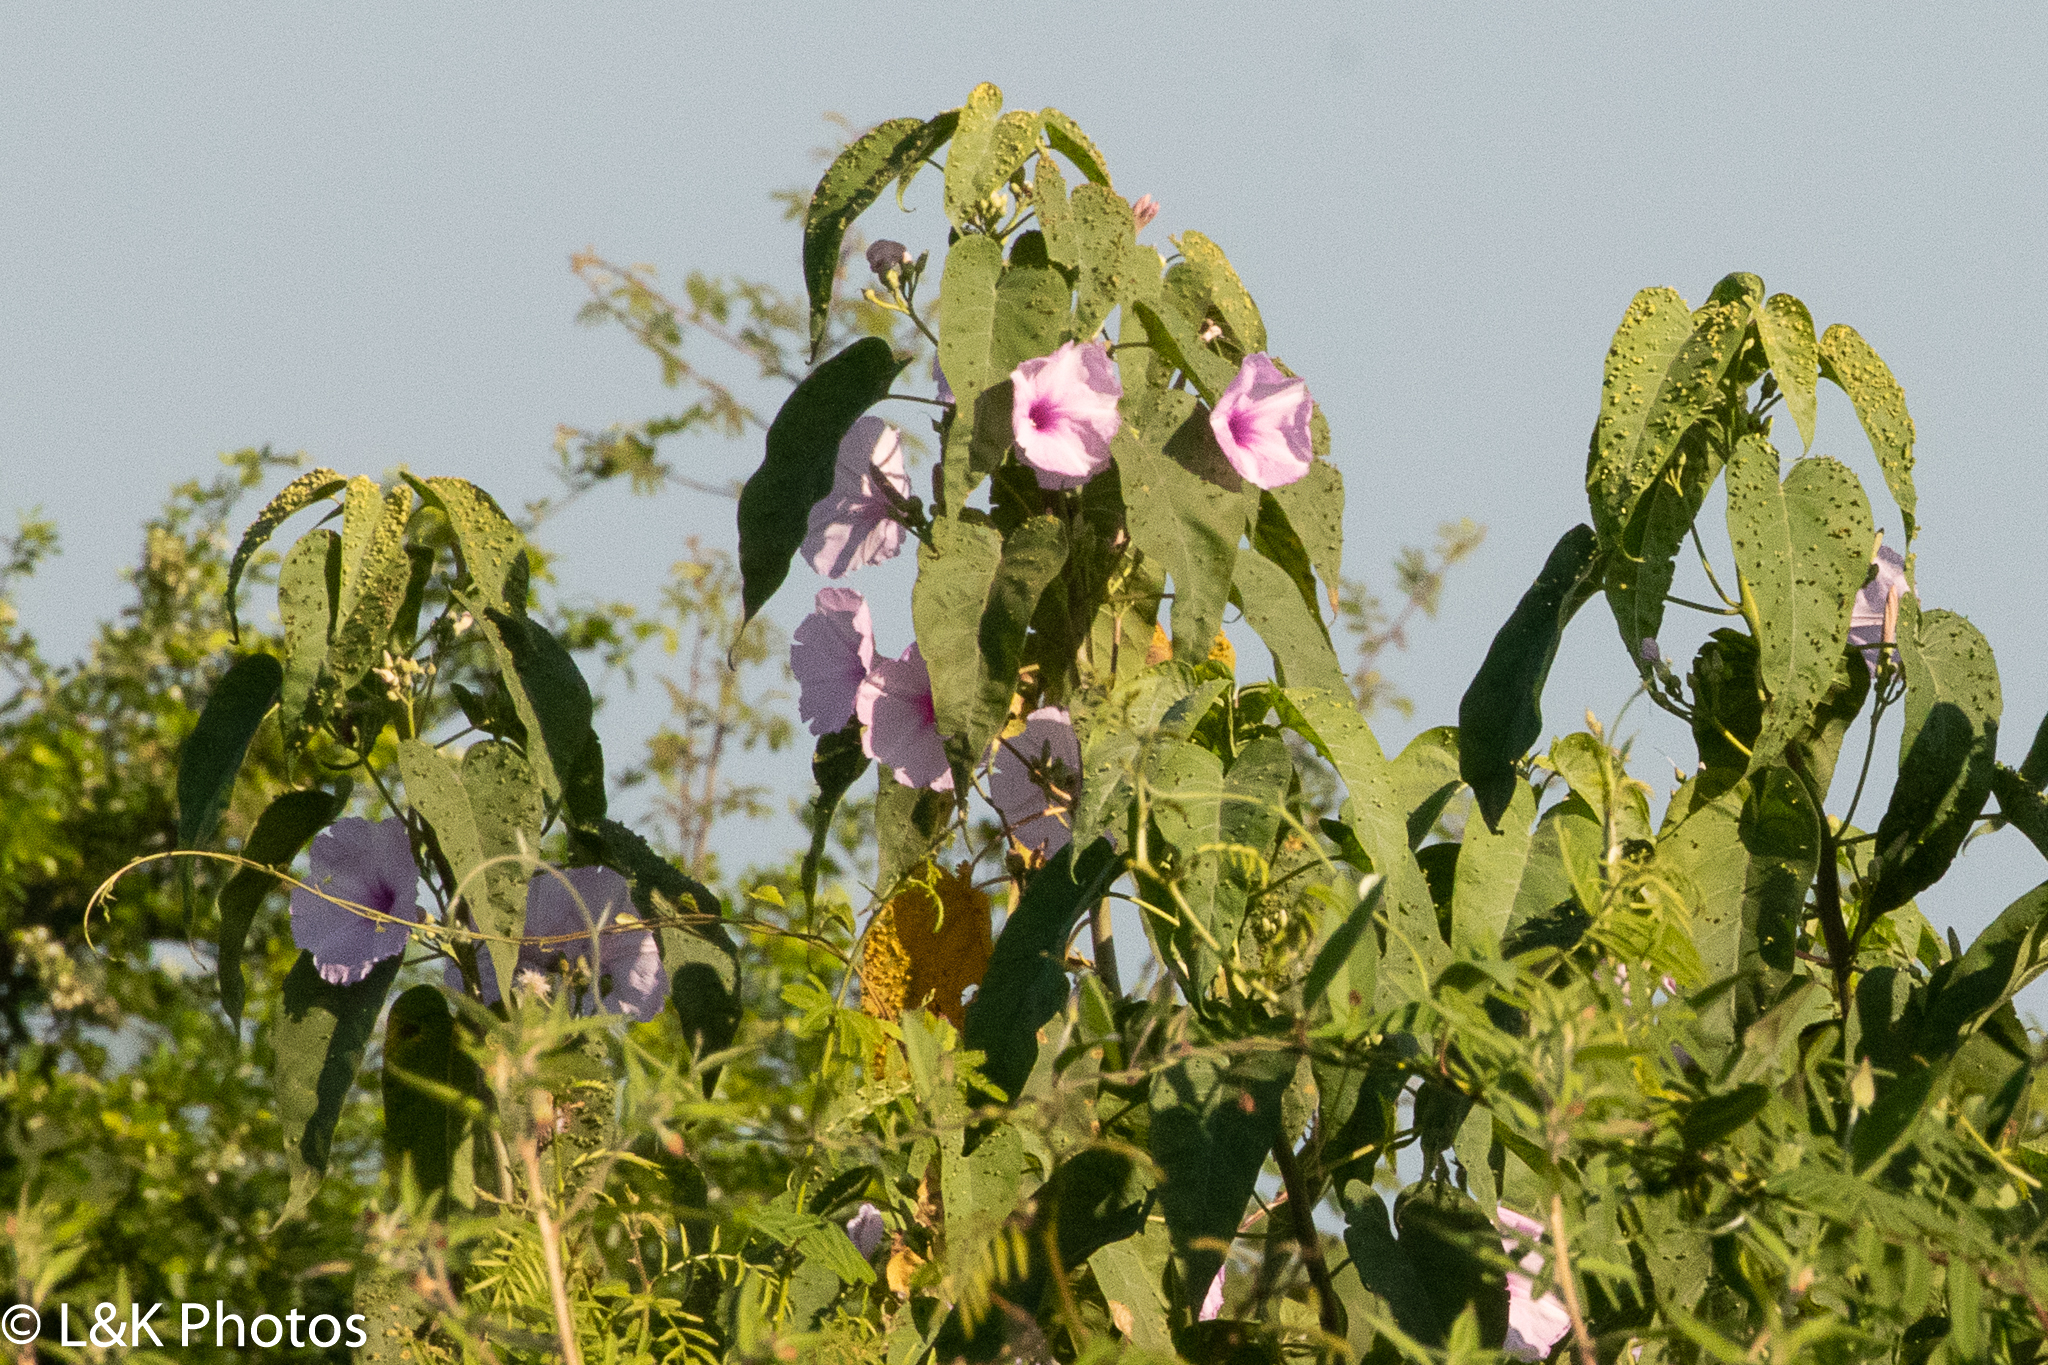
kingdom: Plantae
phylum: Tracheophyta
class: Magnoliopsida
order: Solanales
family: Convolvulaceae
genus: Ipomoea
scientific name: Ipomoea carnea
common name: Morning-glory
